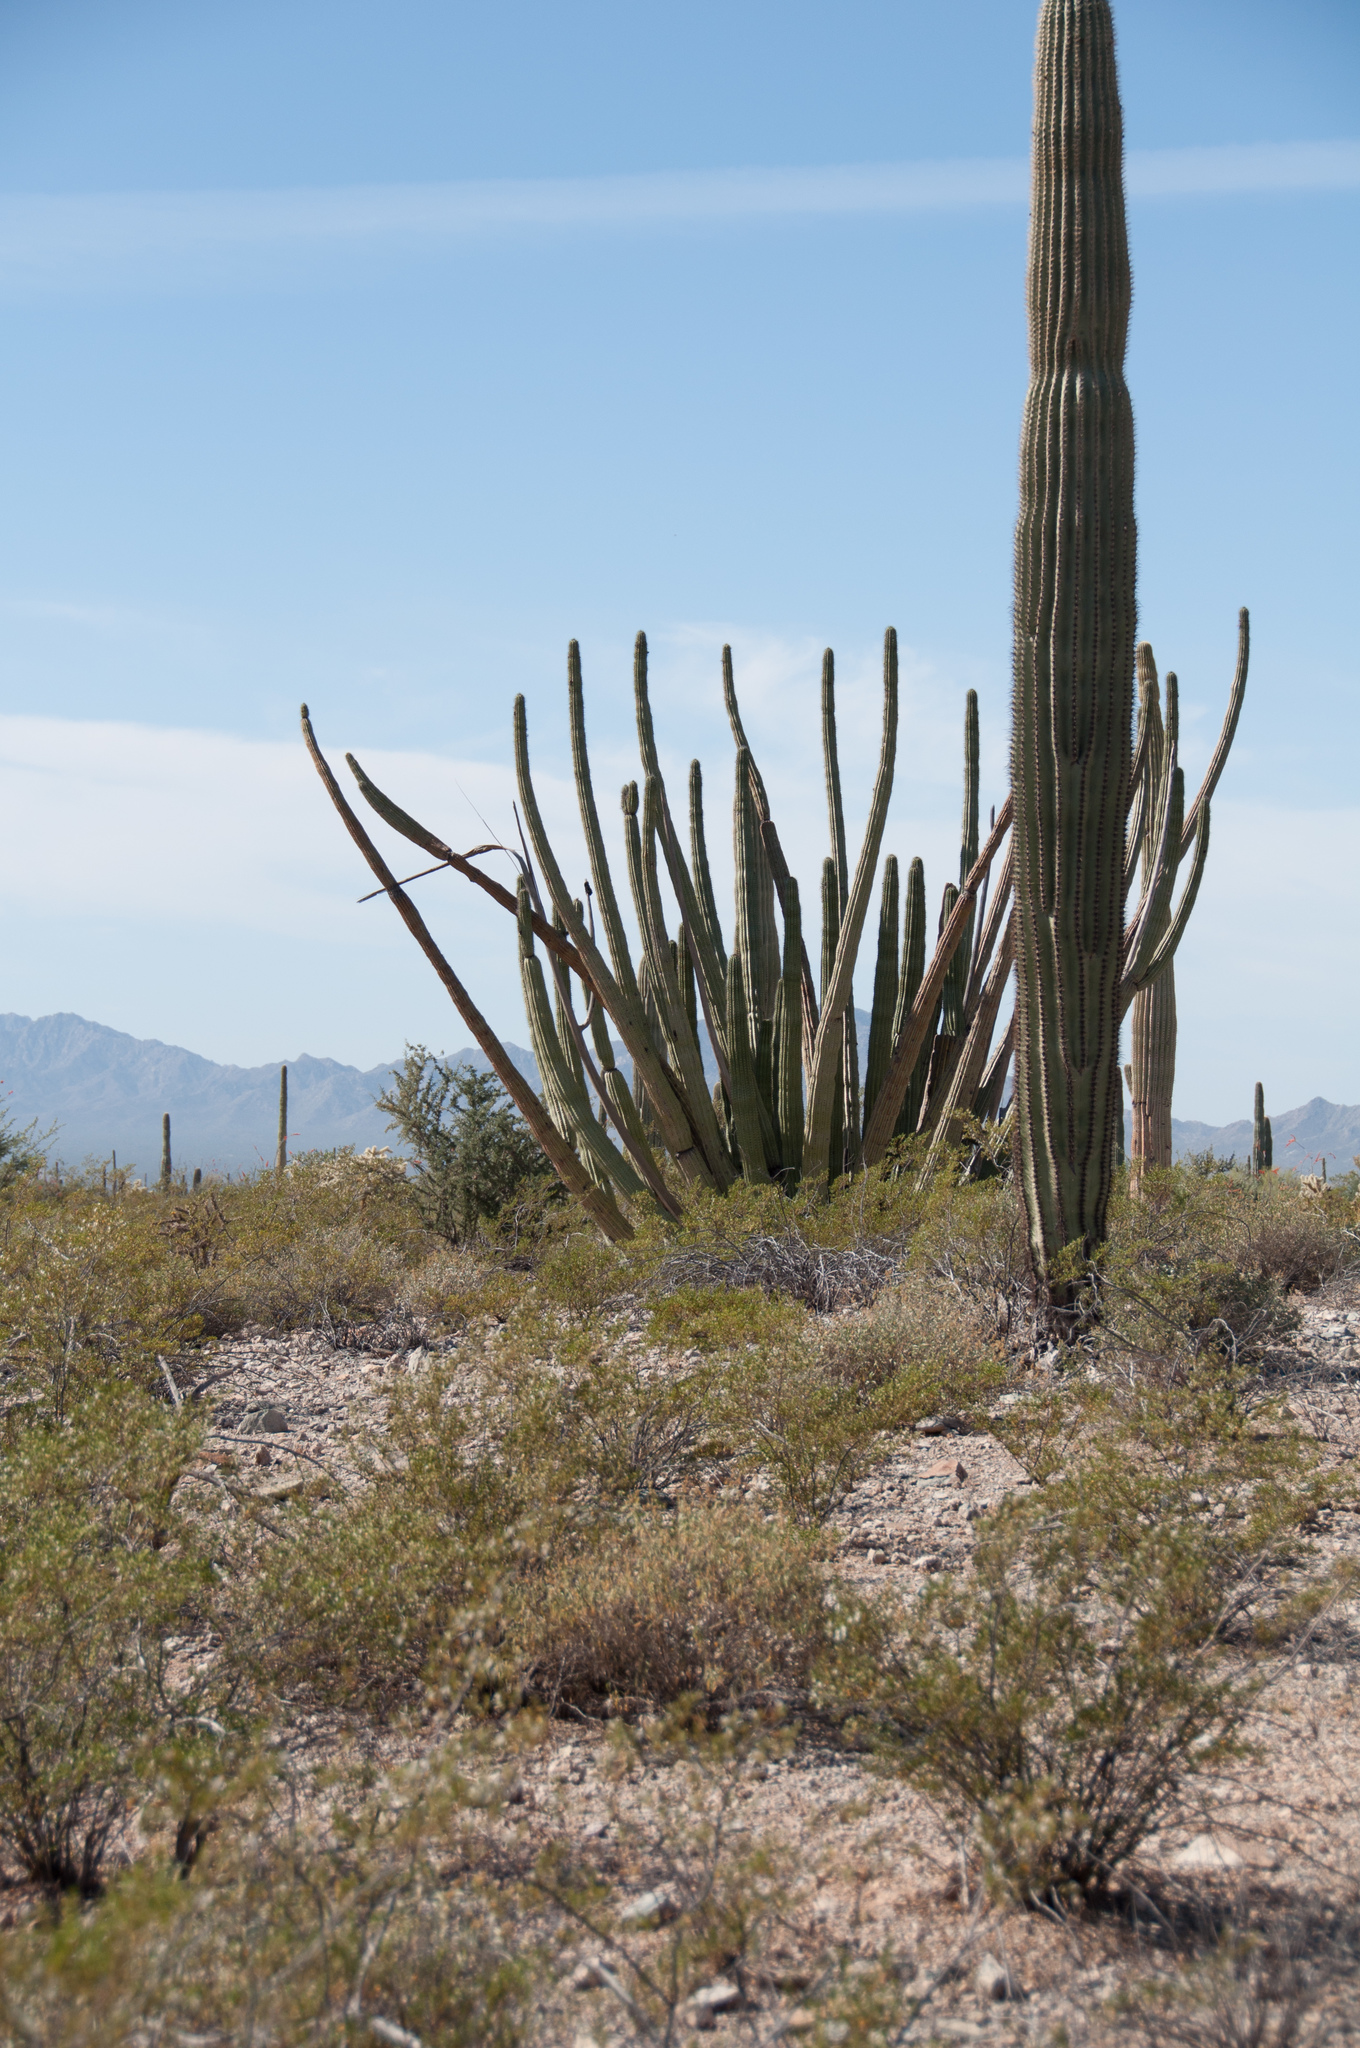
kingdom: Plantae
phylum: Tracheophyta
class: Magnoliopsida
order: Caryophyllales
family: Cactaceae
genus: Stenocereus
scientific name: Stenocereus thurberi
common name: Organ pipe cactus
